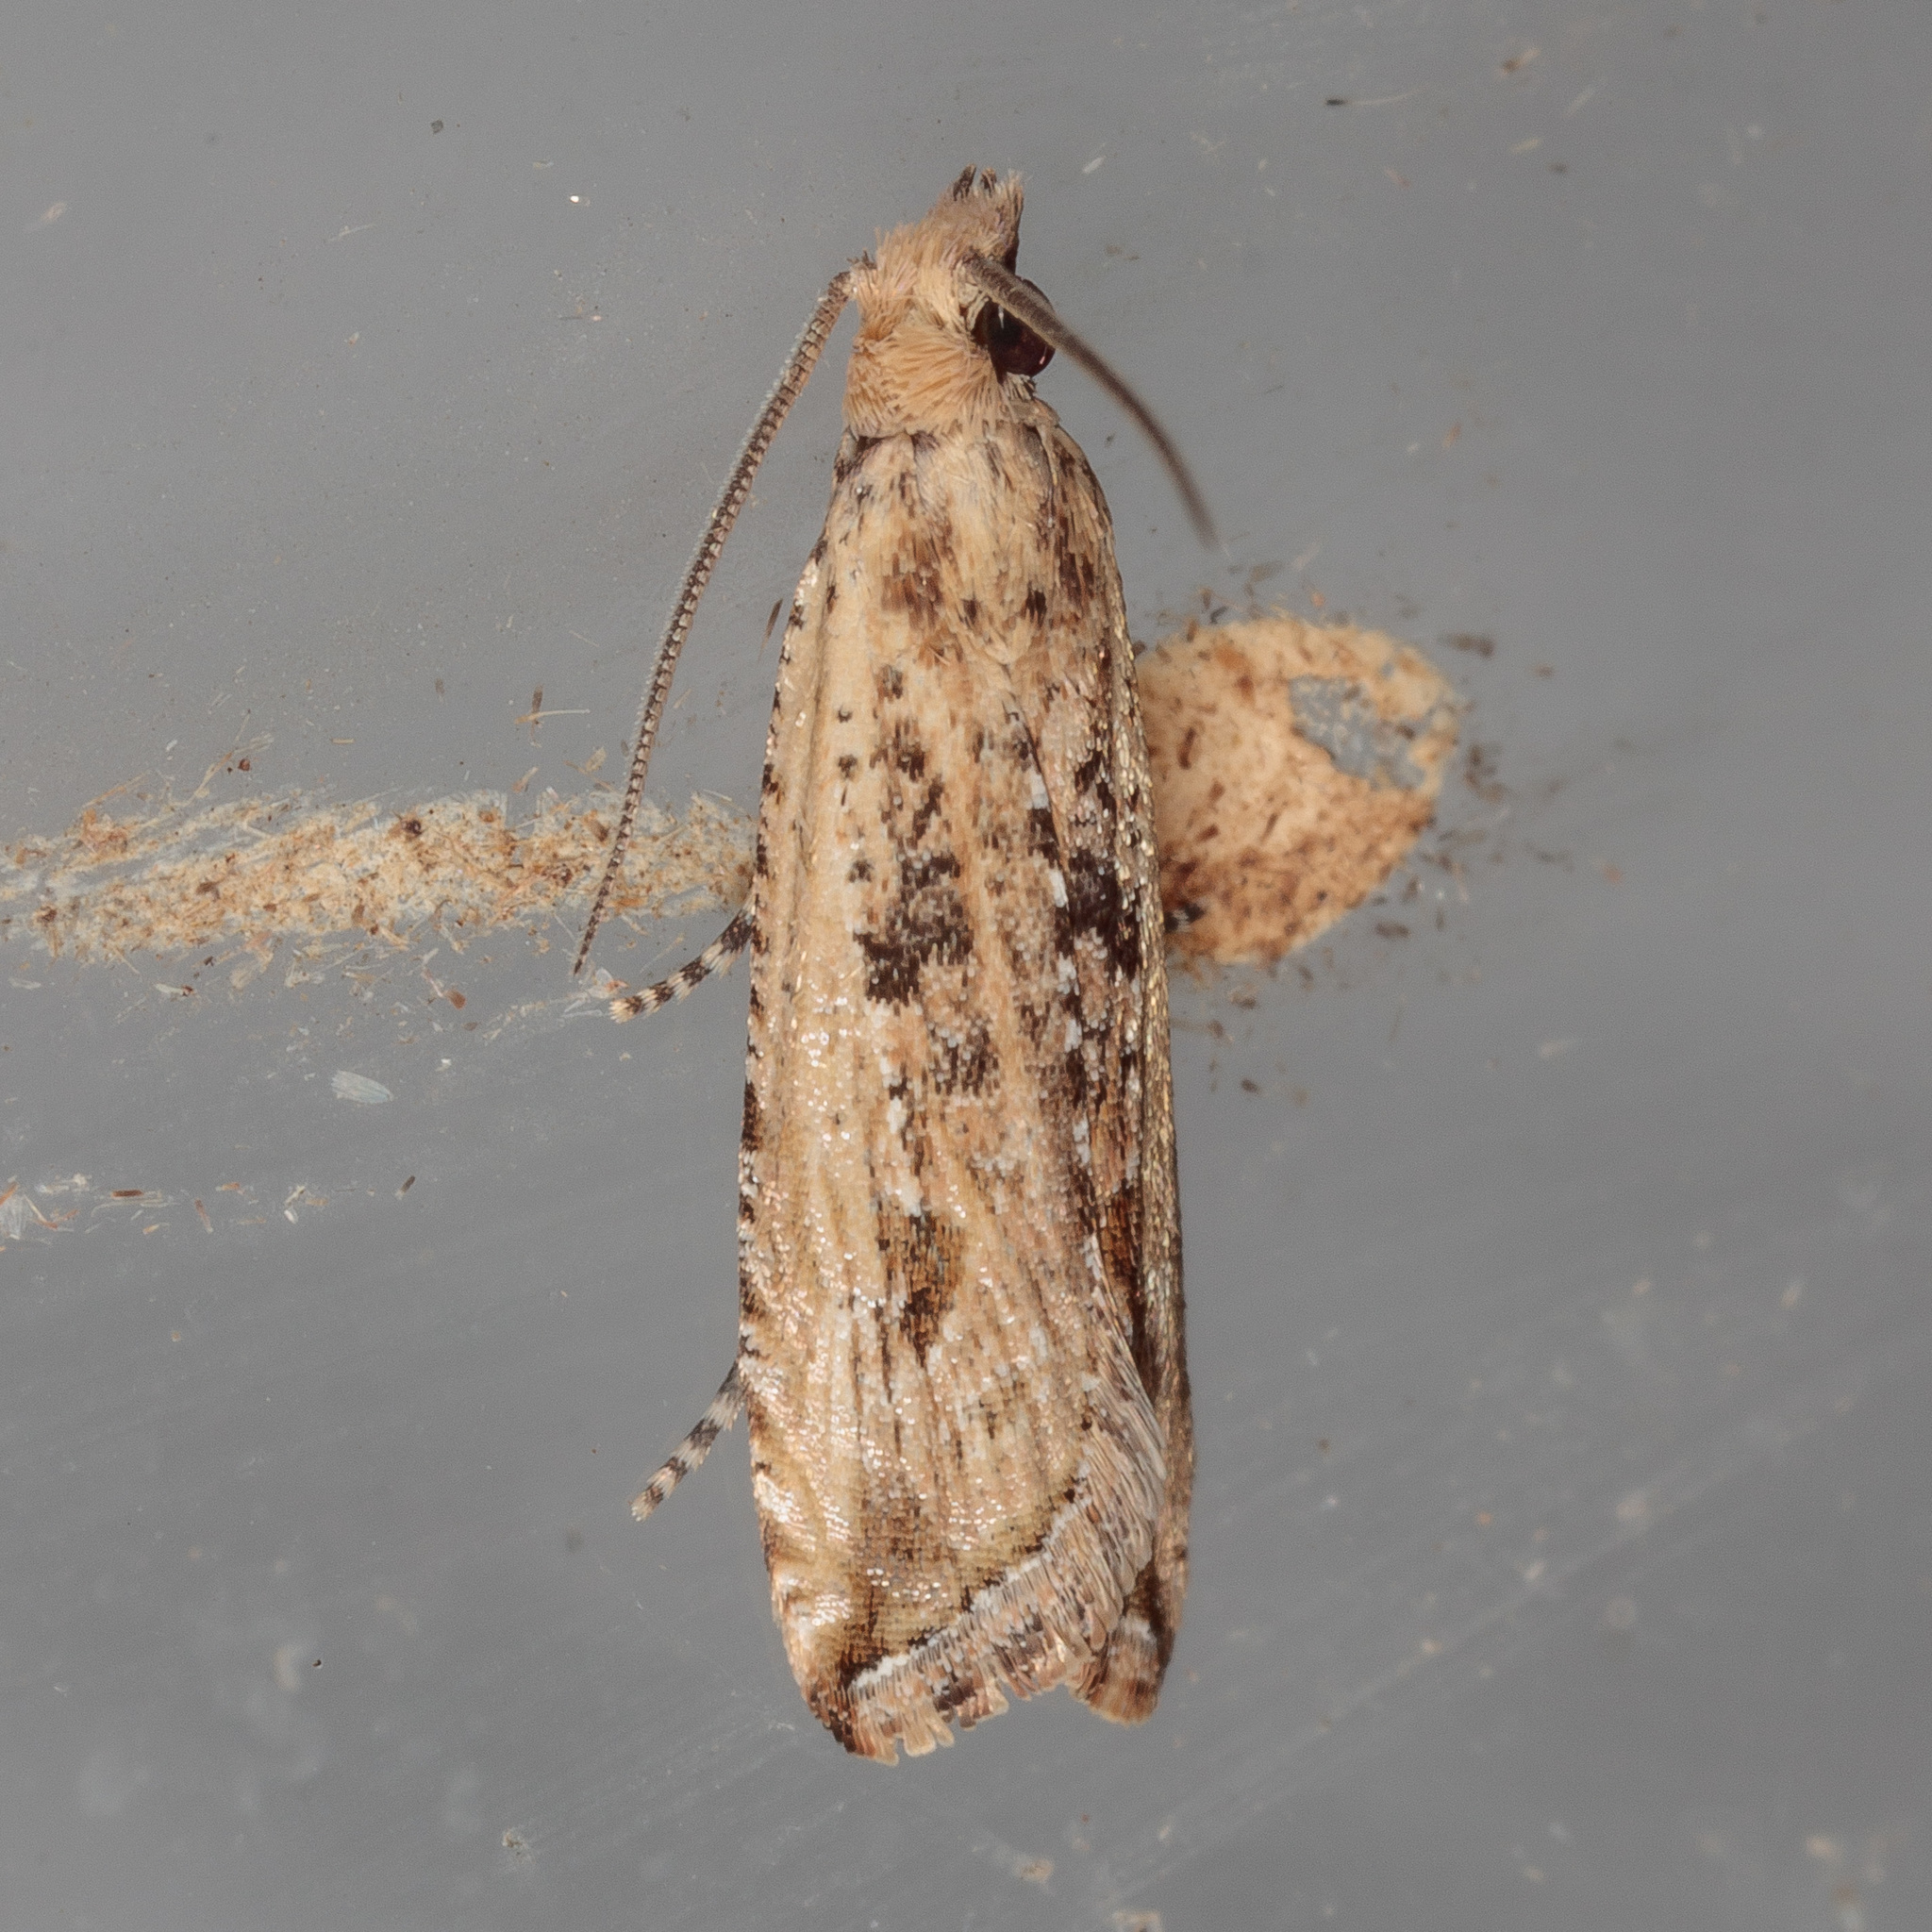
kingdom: Animalia
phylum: Arthropoda
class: Insecta
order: Lepidoptera
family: Tortricidae
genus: Bactra
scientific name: Bactra verutana
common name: Javelin moth
